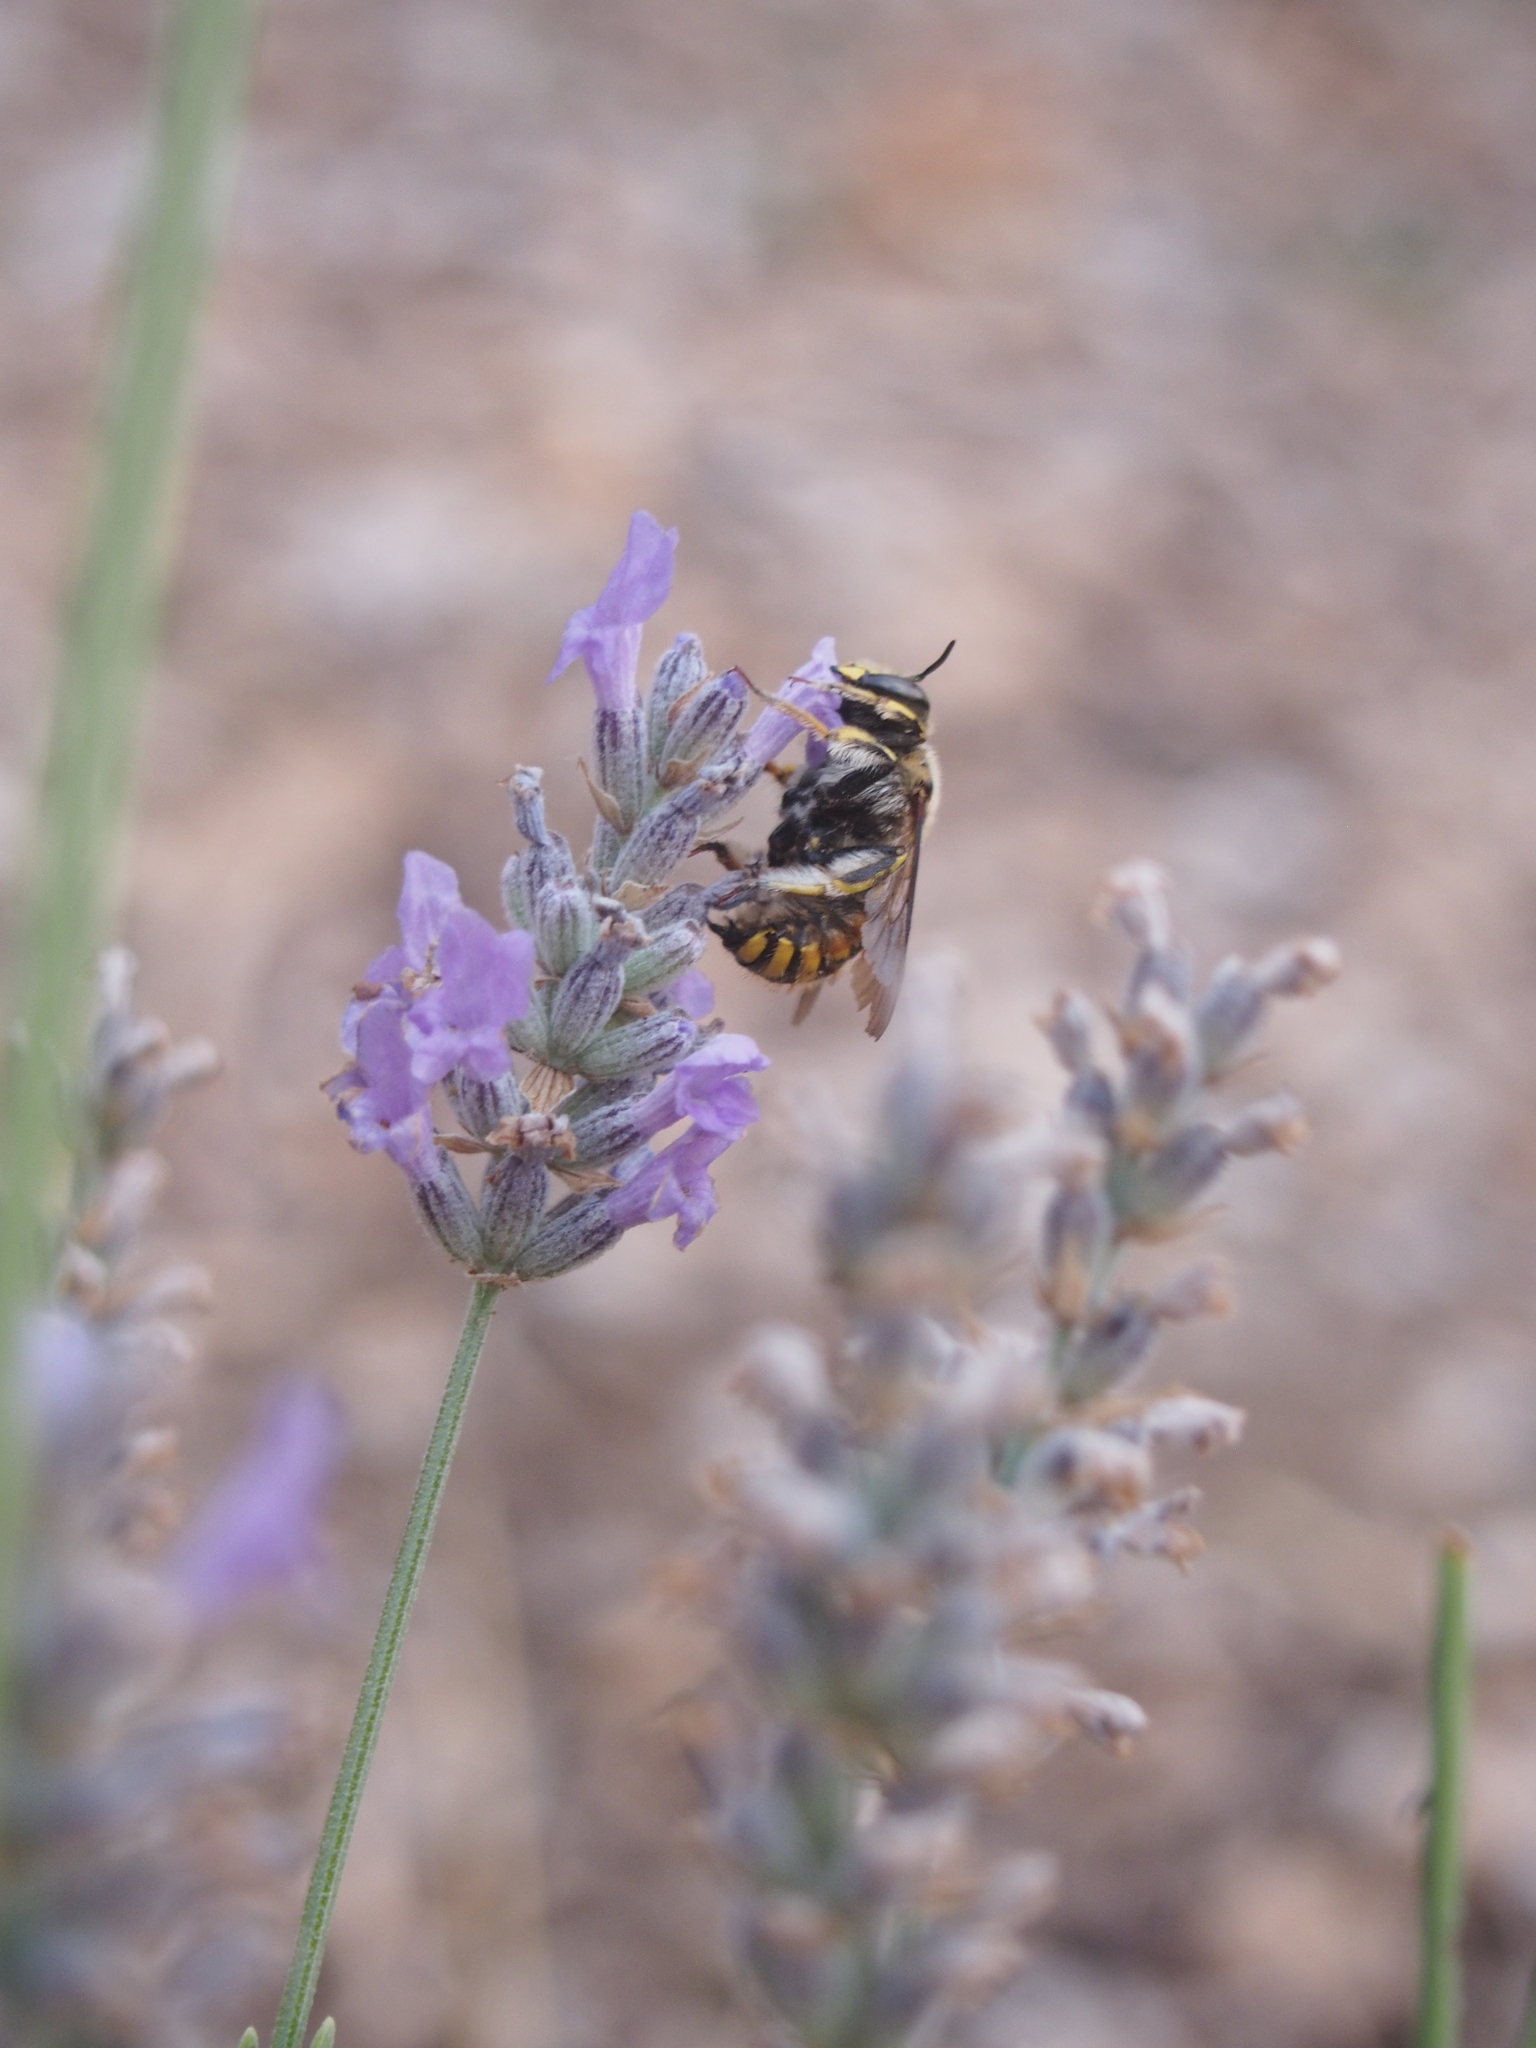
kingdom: Animalia
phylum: Arthropoda
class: Insecta
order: Hymenoptera
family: Megachilidae
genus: Anthidium
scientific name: Anthidium manicatum
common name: Wool carder bee
